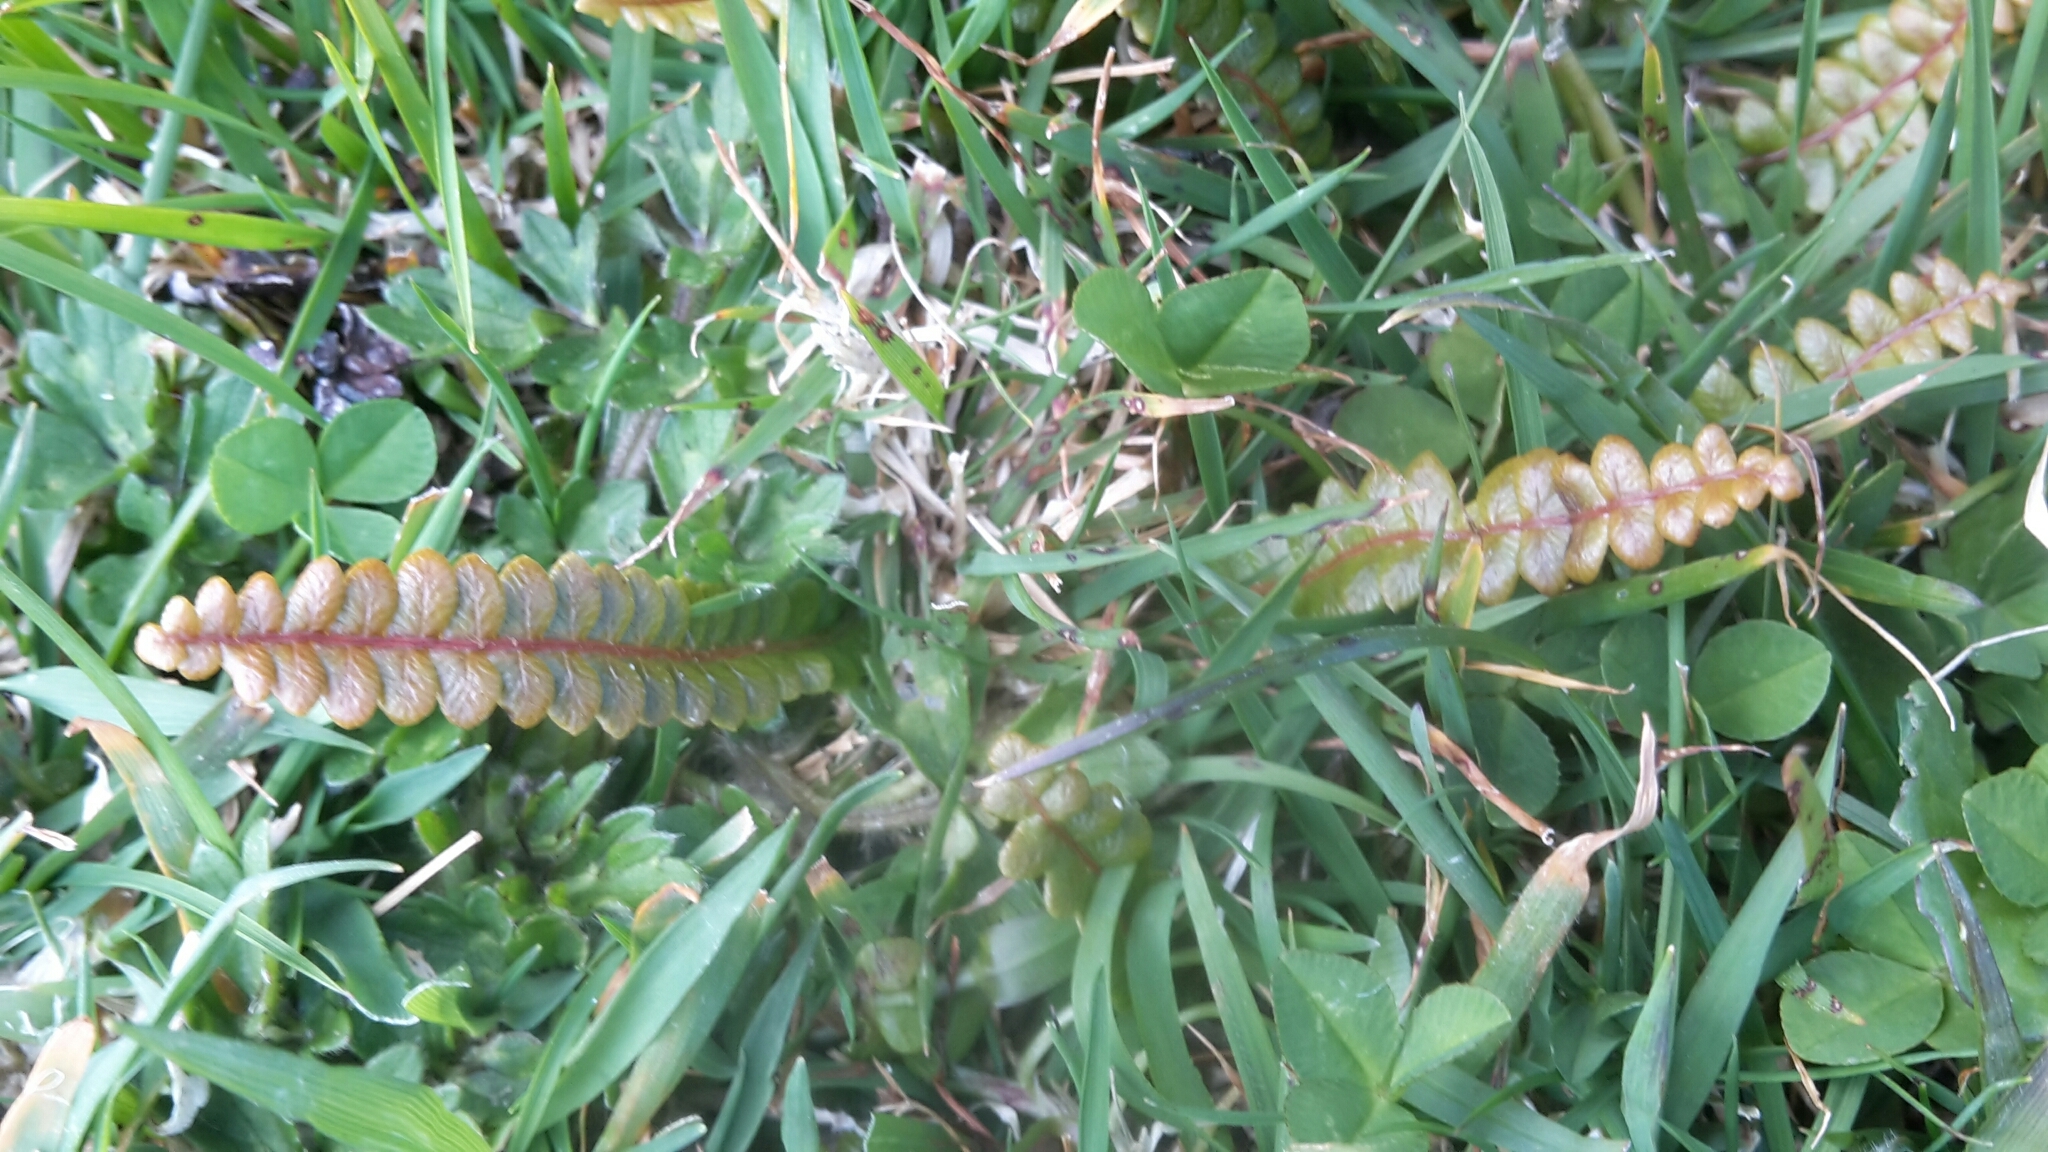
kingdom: Plantae
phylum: Tracheophyta
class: Polypodiopsida
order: Polypodiales
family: Blechnaceae
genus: Austroblechnum
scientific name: Austroblechnum penna-marina
